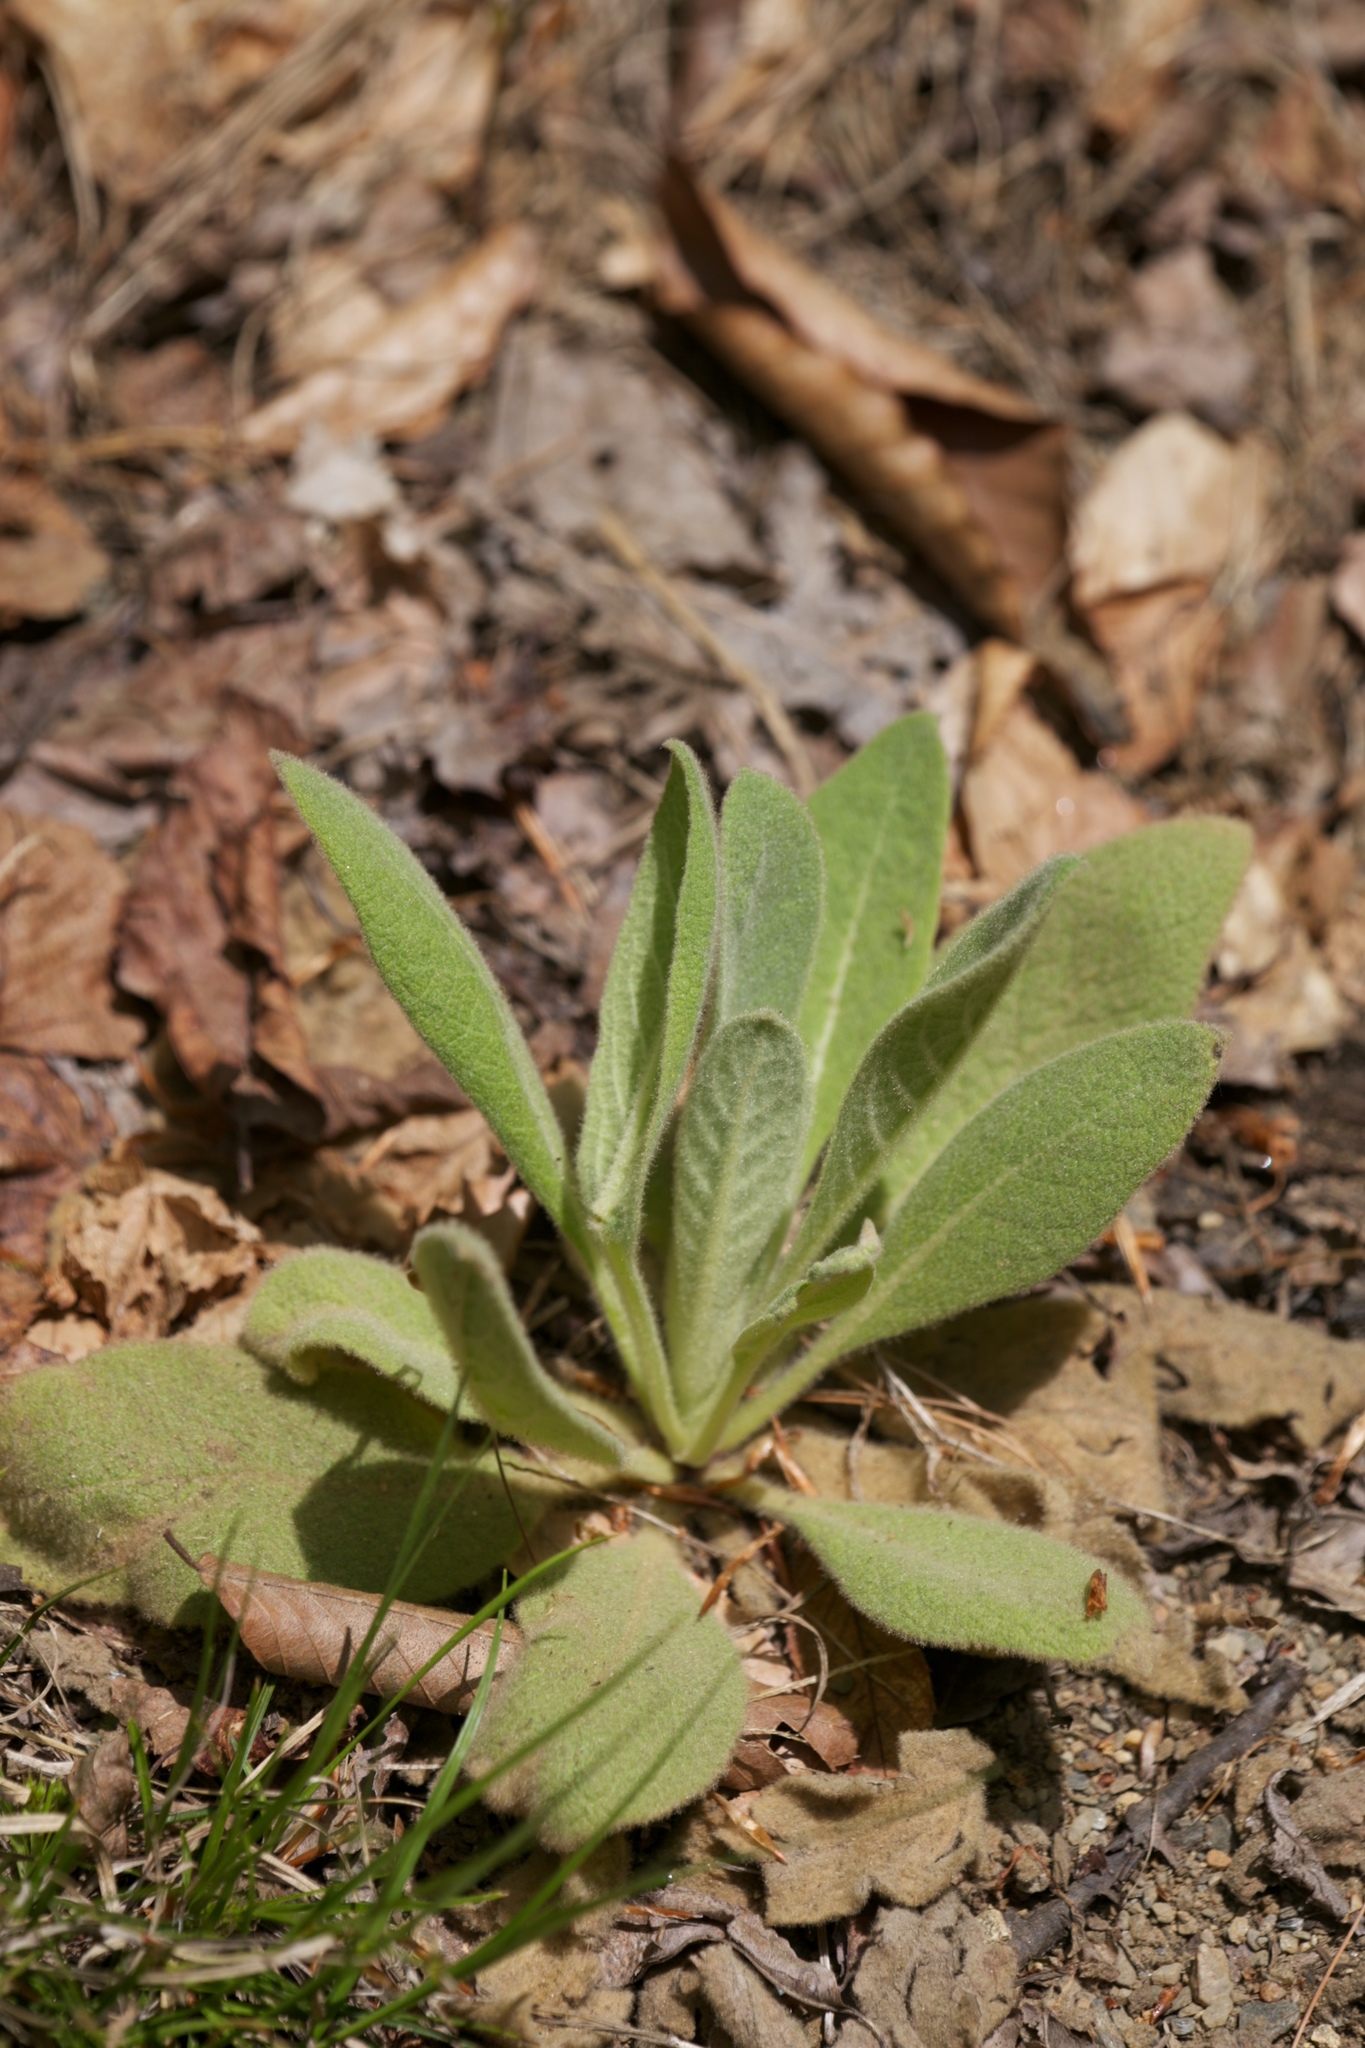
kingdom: Plantae
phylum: Tracheophyta
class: Magnoliopsida
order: Lamiales
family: Scrophulariaceae
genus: Verbascum
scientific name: Verbascum thapsus
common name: Common mullein
